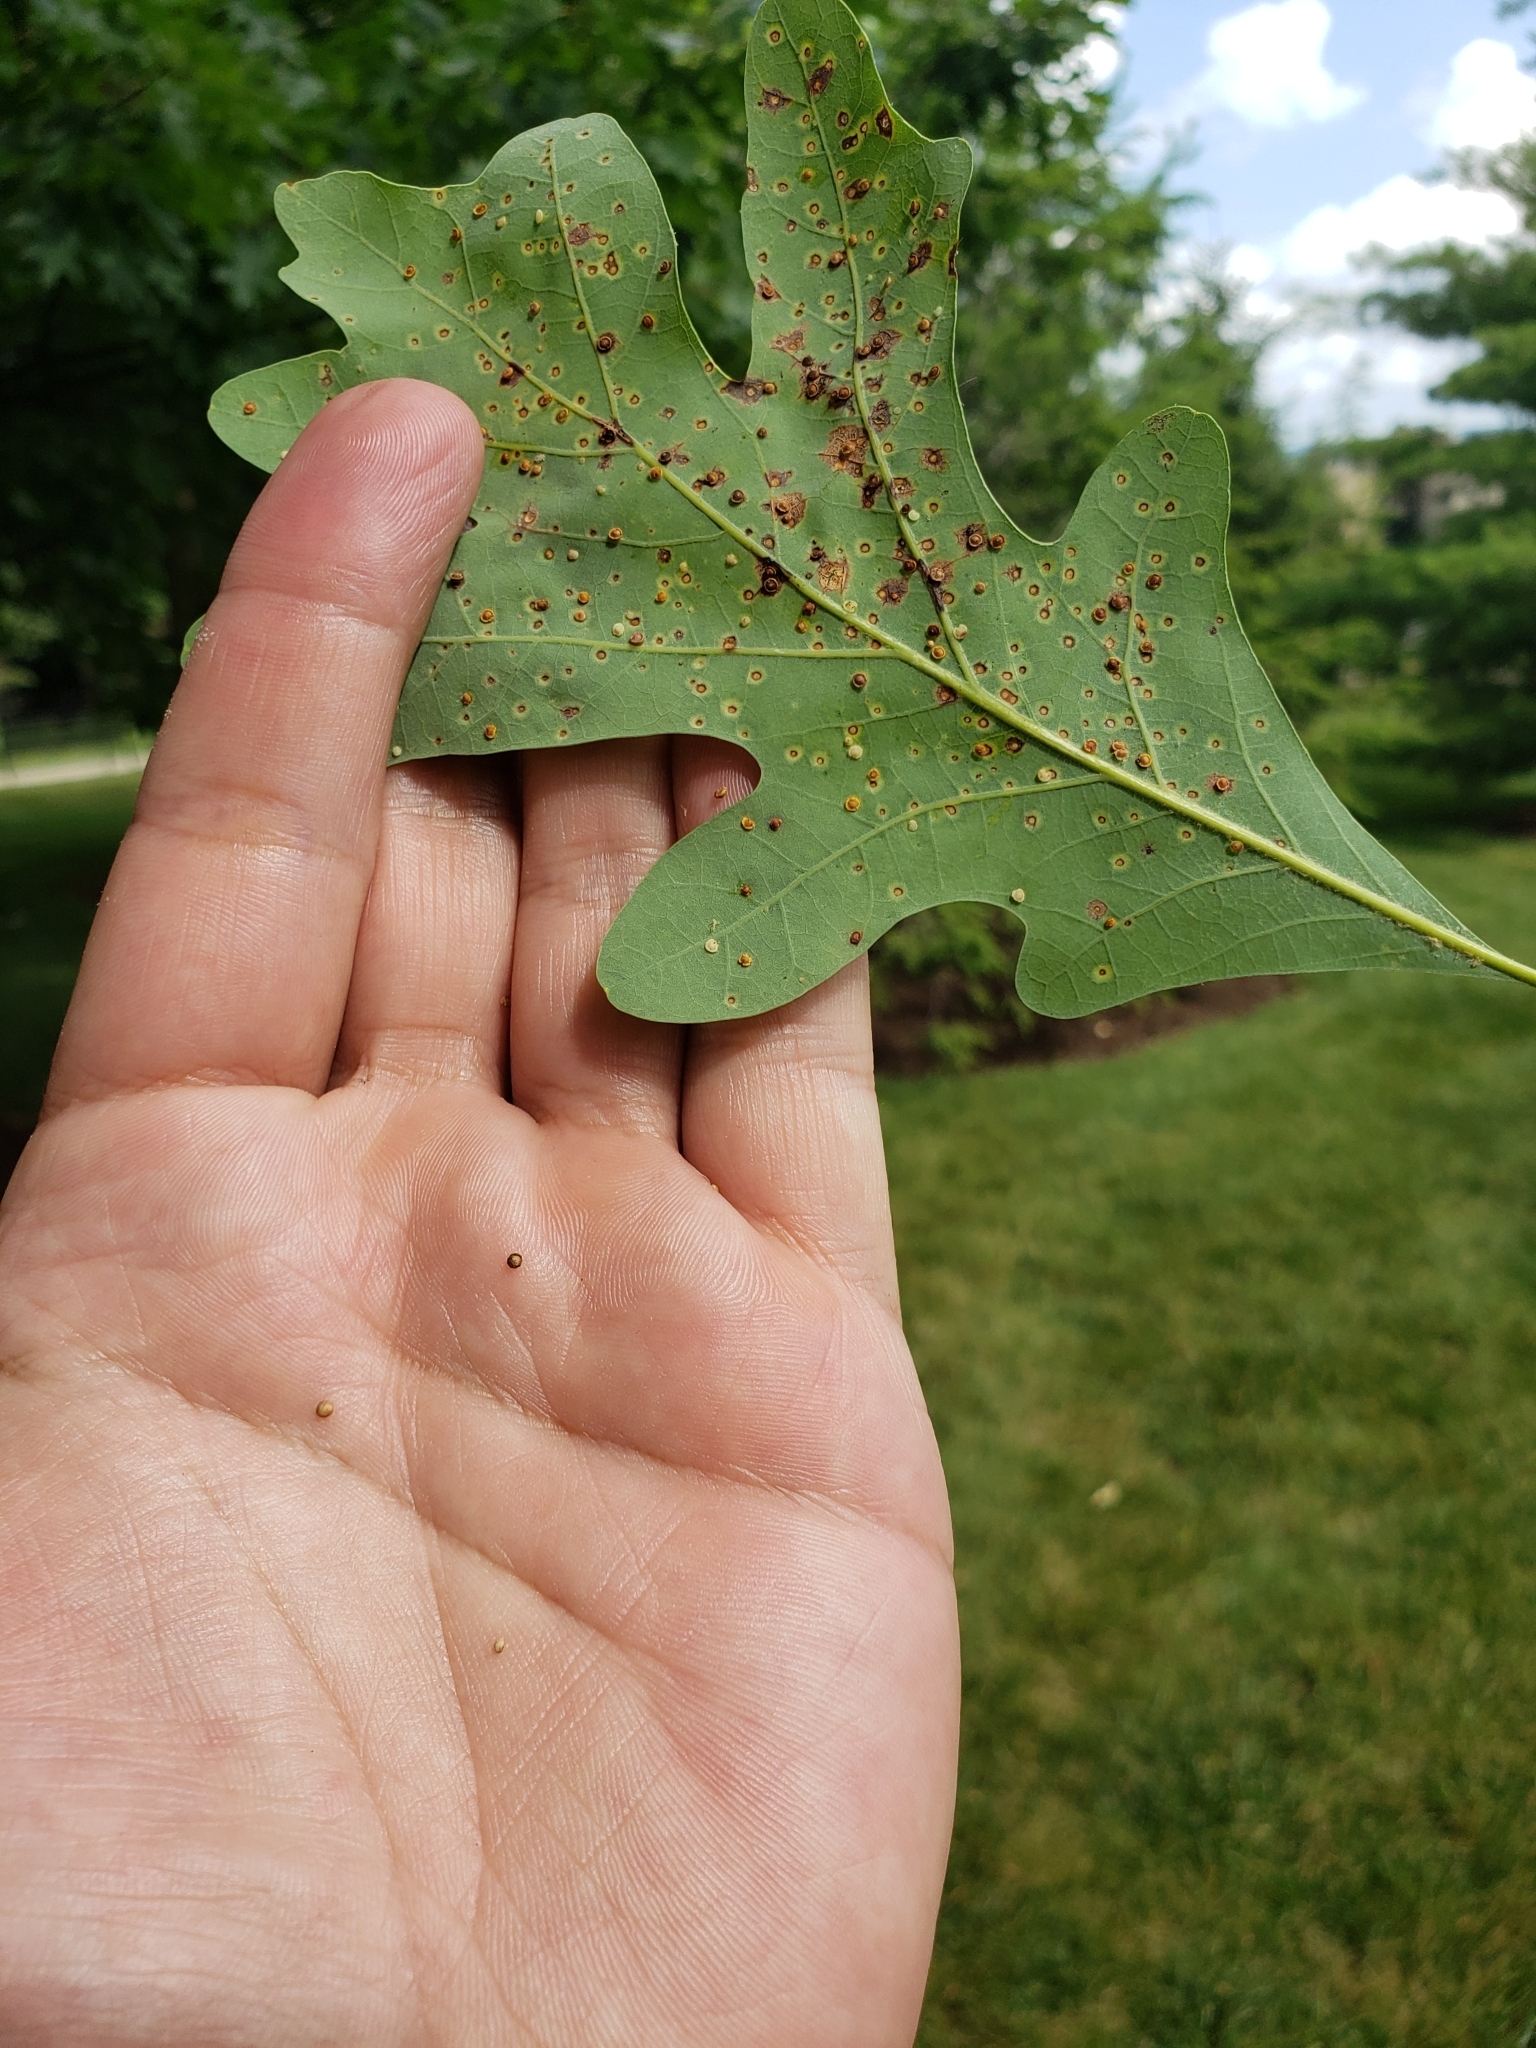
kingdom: Animalia
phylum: Arthropoda
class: Insecta
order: Hymenoptera
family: Cynipidae
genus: Neuroterus
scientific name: Neuroterus
